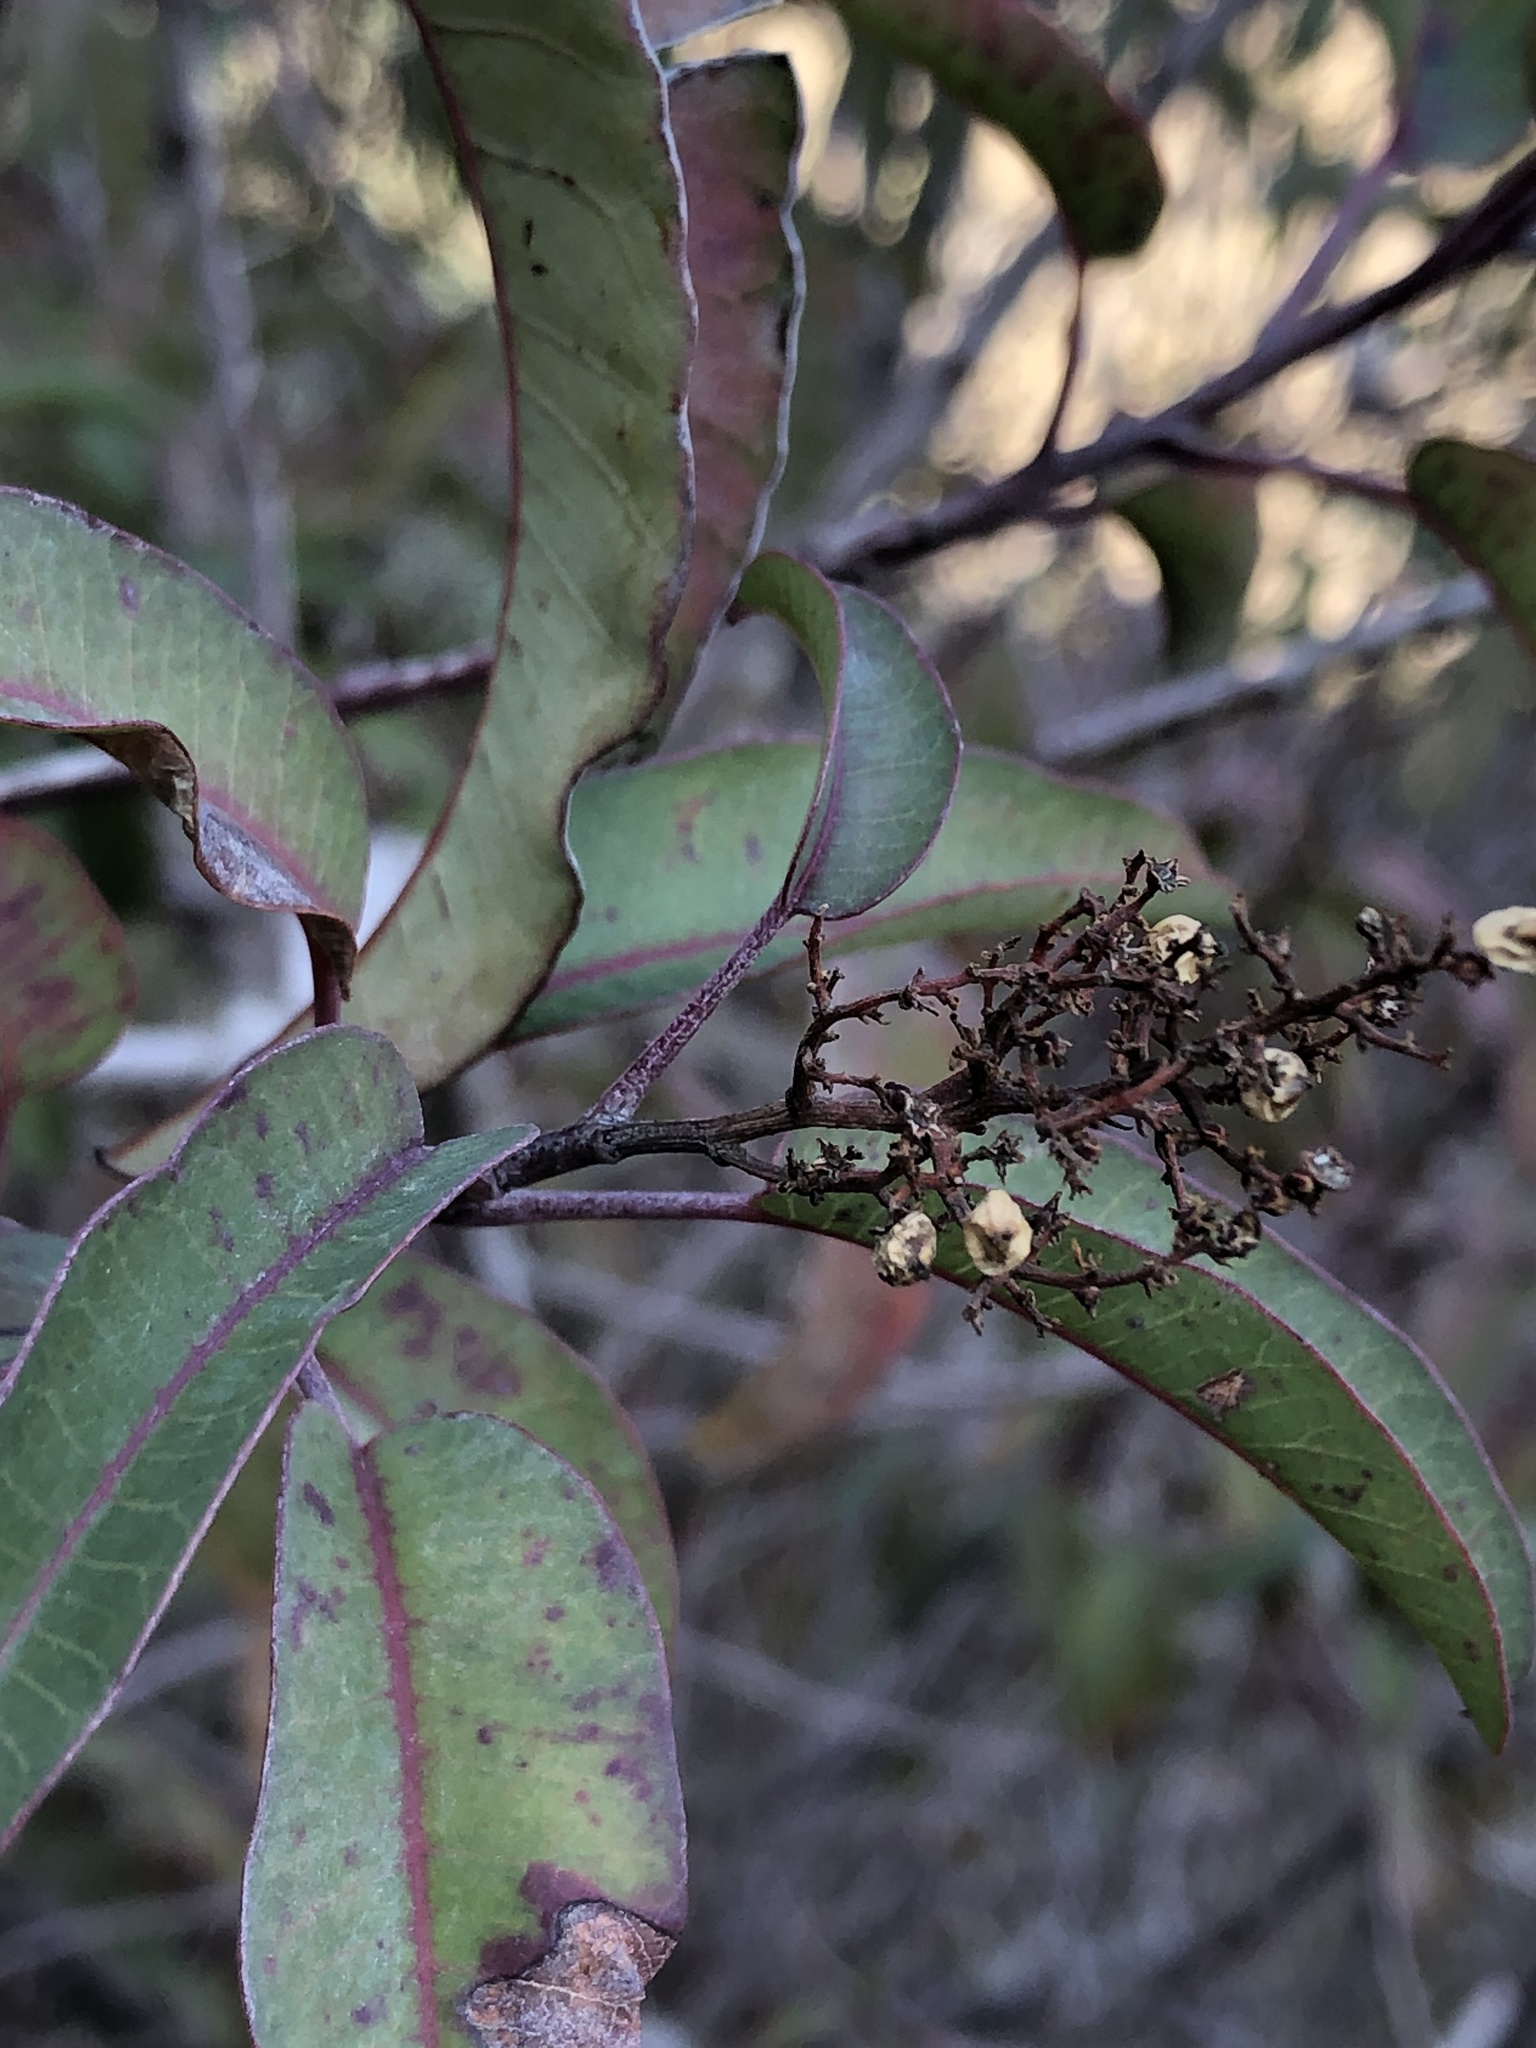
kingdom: Plantae
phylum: Tracheophyta
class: Magnoliopsida
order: Sapindales
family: Anacardiaceae
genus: Malosma
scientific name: Malosma laurina
